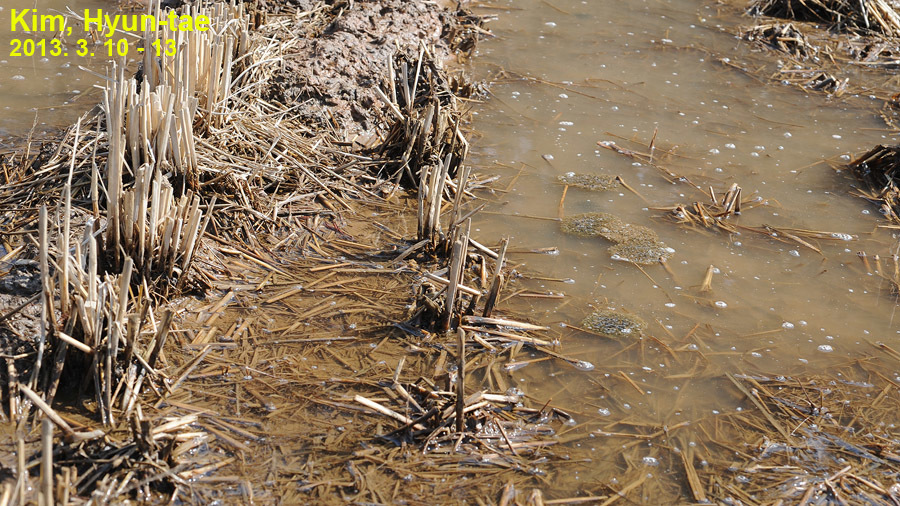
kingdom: Animalia
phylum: Chordata
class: Amphibia
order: Anura
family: Ranidae
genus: Rana
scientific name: Rana coreana
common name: Korean brown frog
